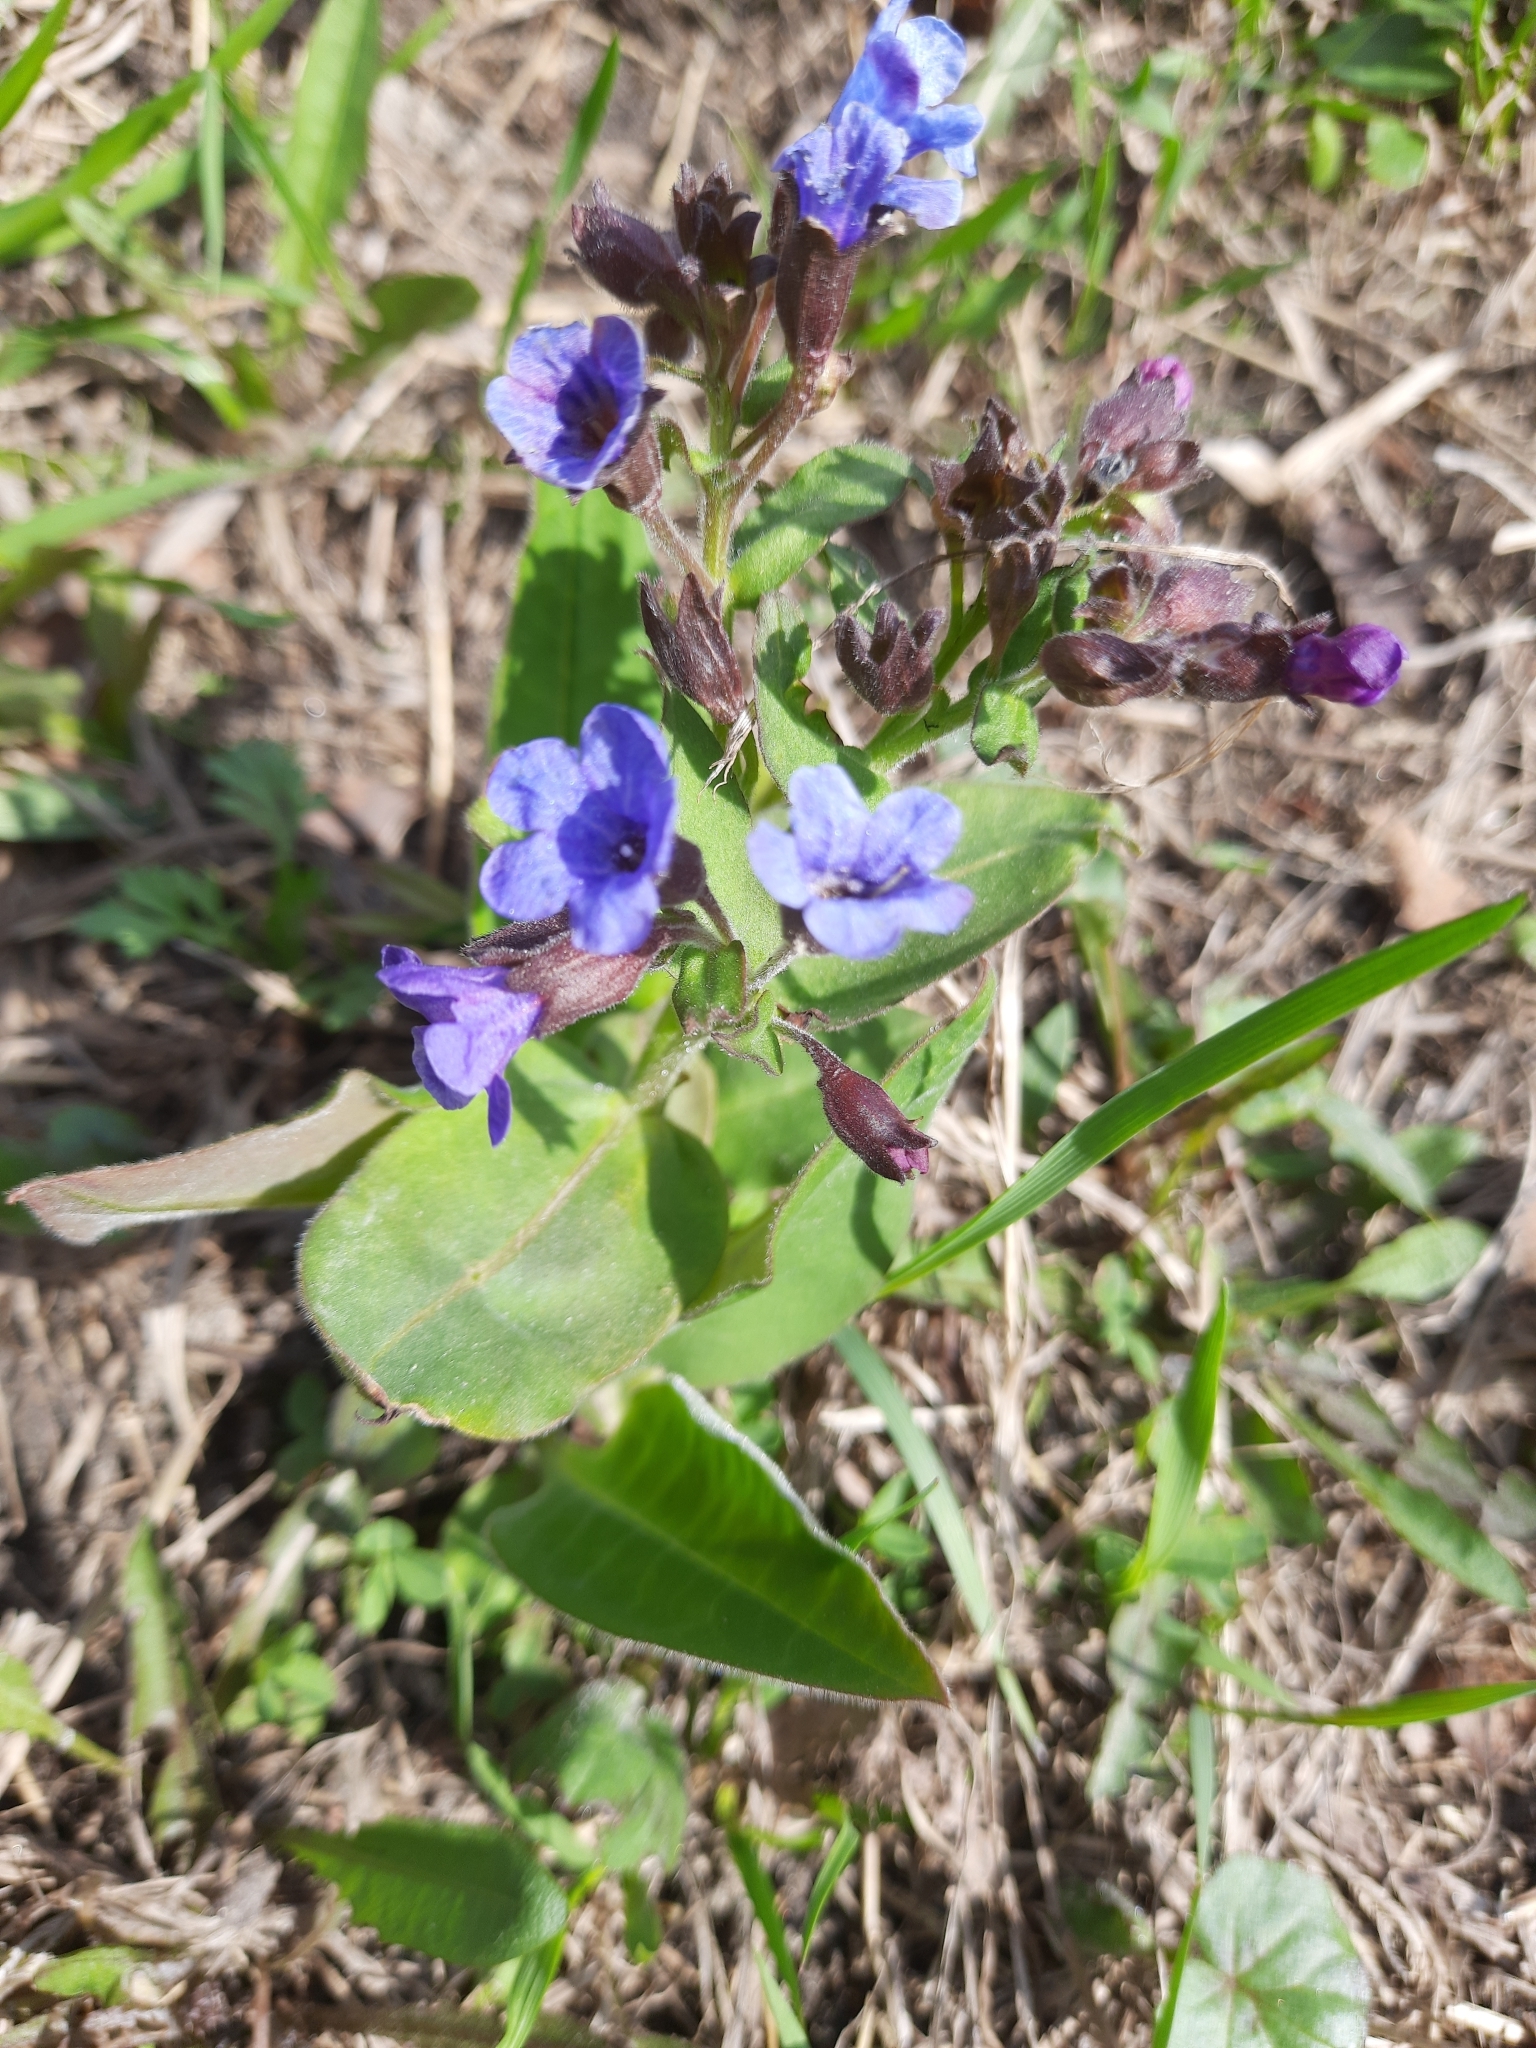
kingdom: Plantae
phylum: Tracheophyta
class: Magnoliopsida
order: Boraginales
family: Boraginaceae
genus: Pulmonaria
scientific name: Pulmonaria mollis
